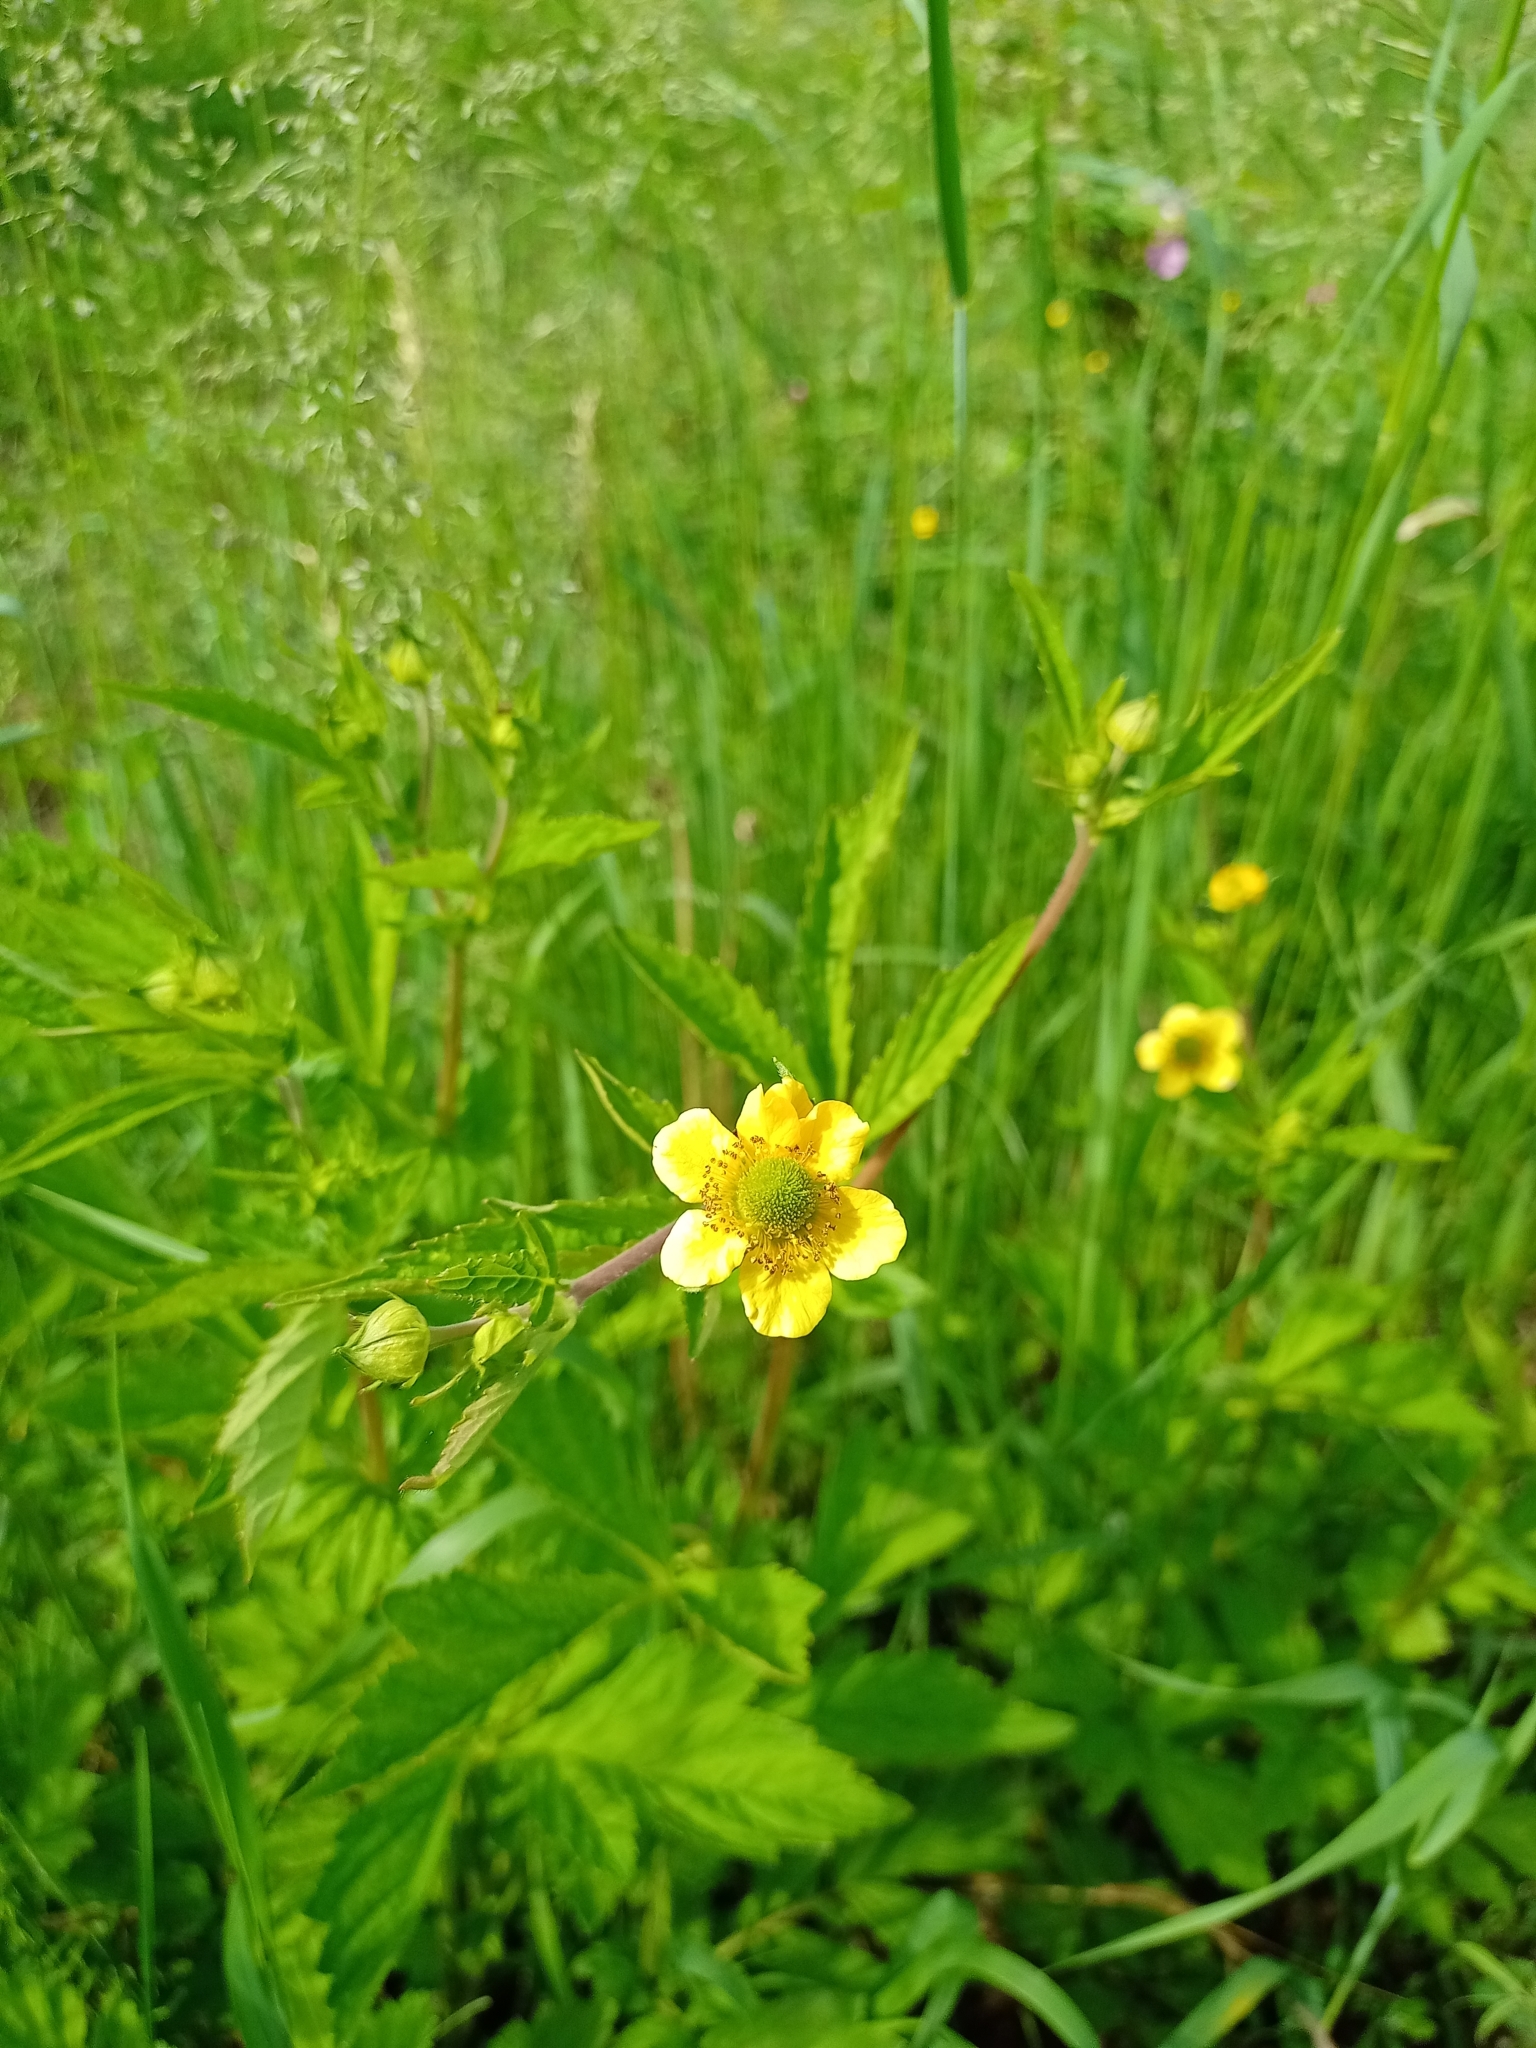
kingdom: Plantae
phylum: Tracheophyta
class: Magnoliopsida
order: Rosales
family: Rosaceae
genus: Geum
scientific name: Geum aleppicum
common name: Yellow avens
